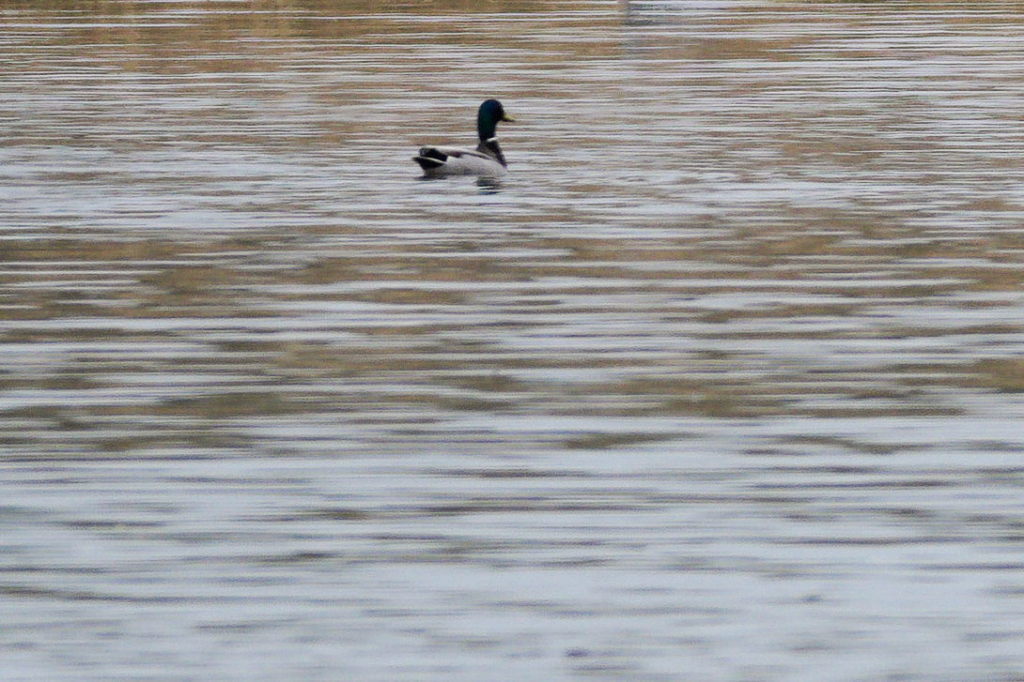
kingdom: Animalia
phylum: Chordata
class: Aves
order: Anseriformes
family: Anatidae
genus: Anas
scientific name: Anas platyrhynchos
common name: Mallard
